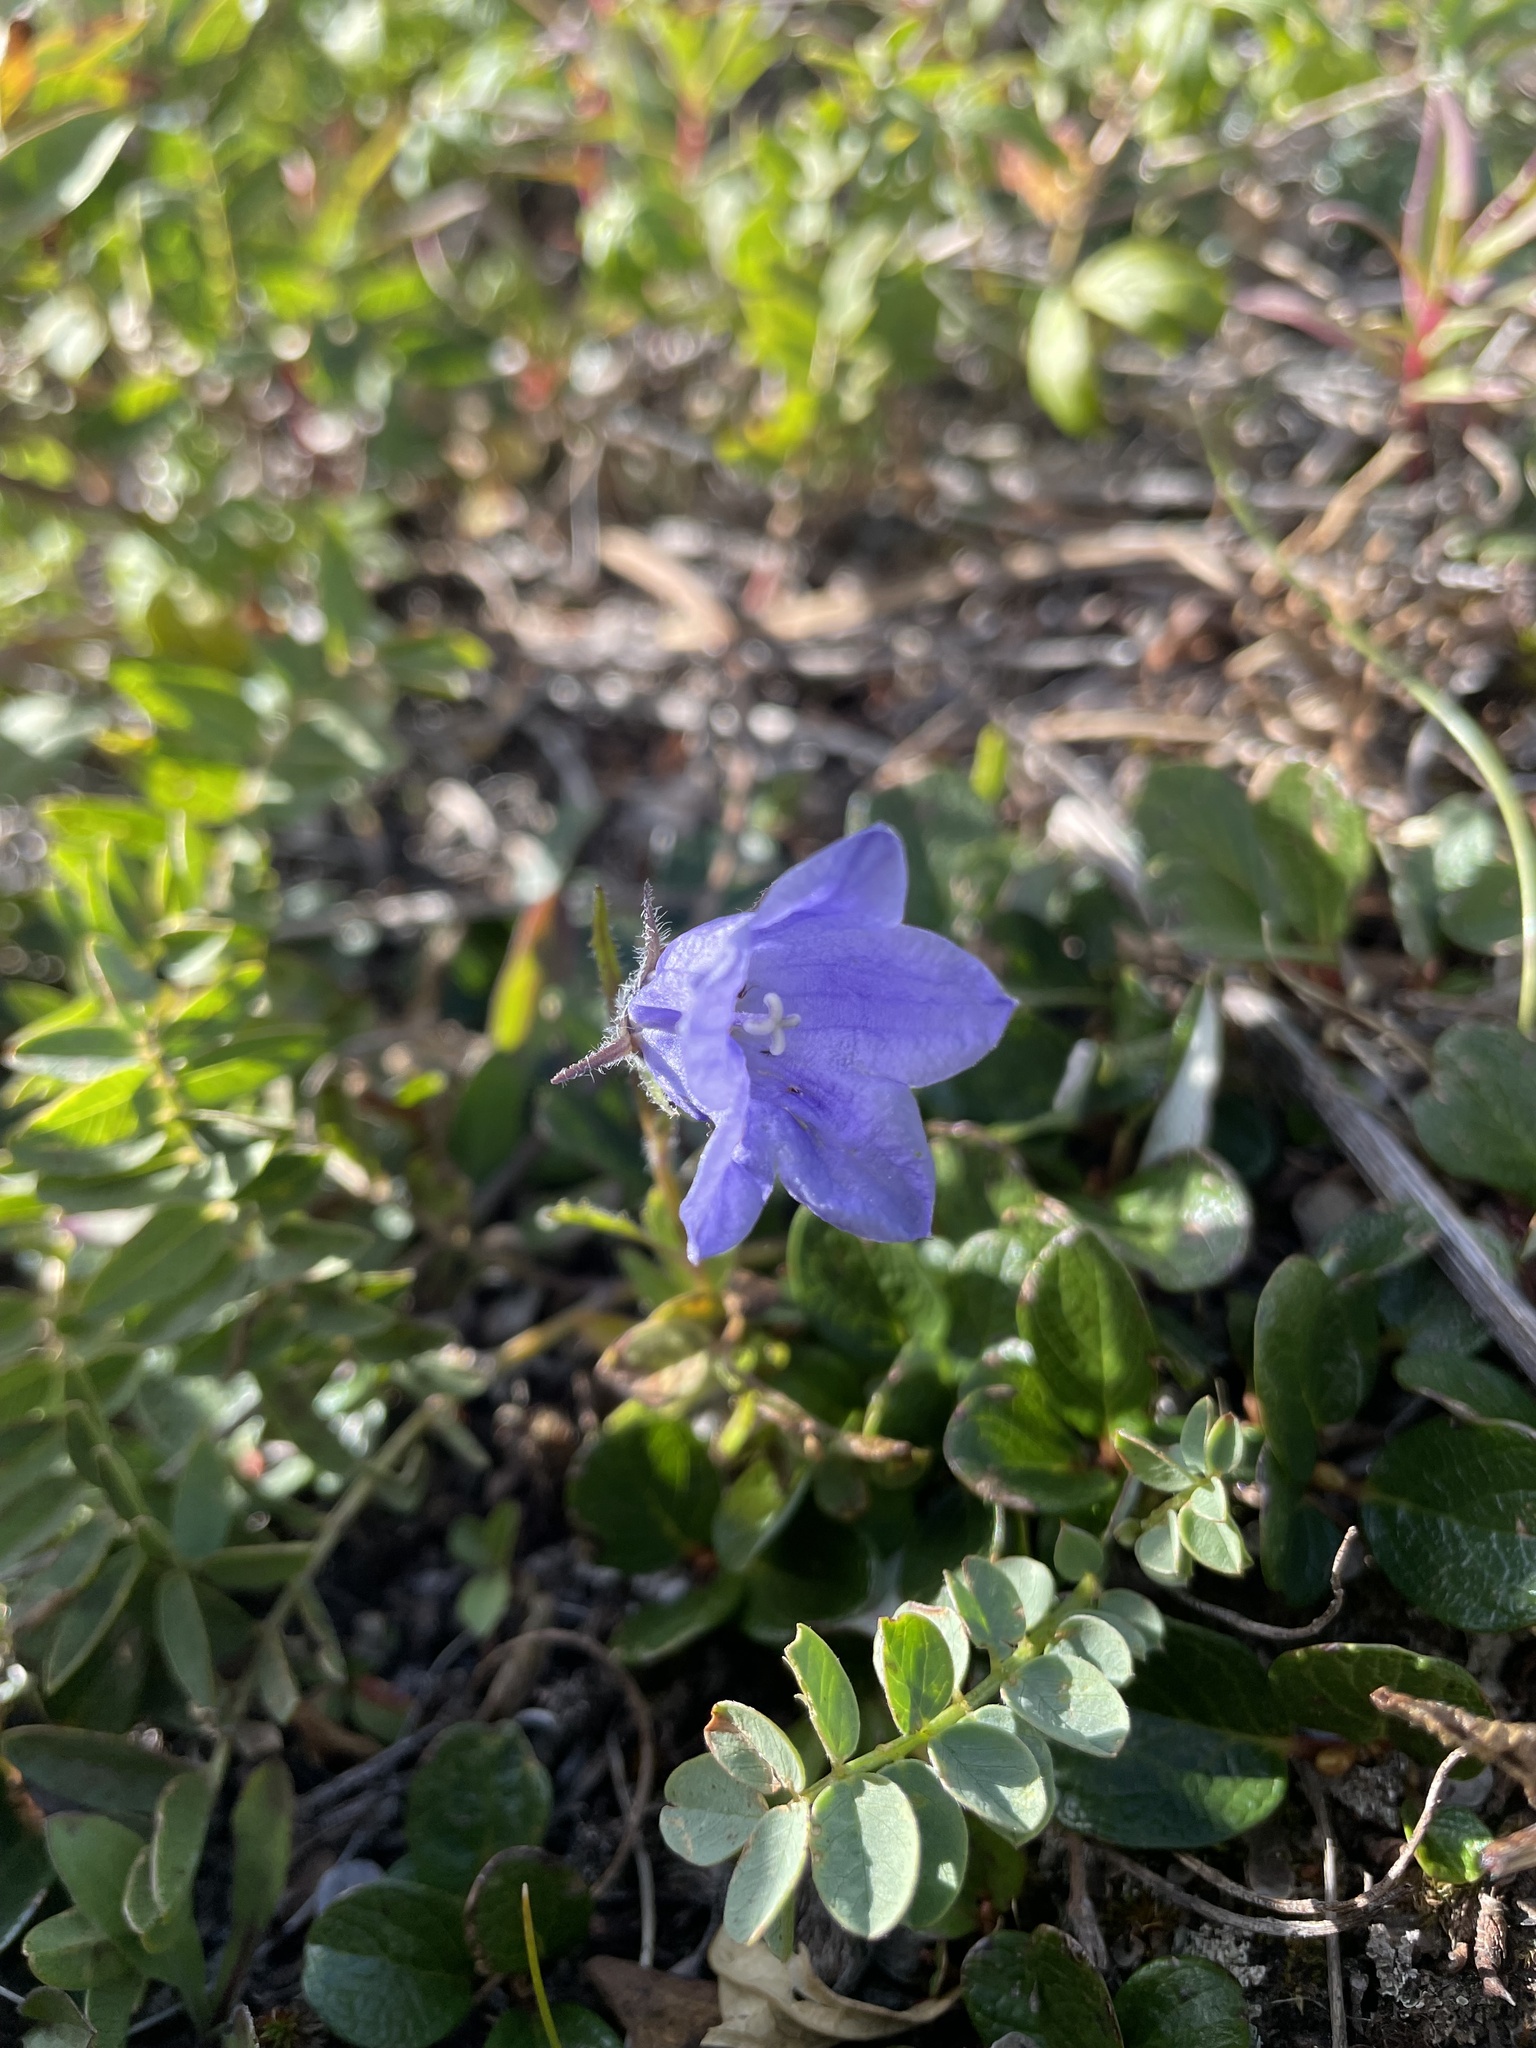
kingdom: Plantae
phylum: Tracheophyta
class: Magnoliopsida
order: Asterales
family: Campanulaceae
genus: Campanula
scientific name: Campanula lasiocarpa
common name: Mountain harebell
